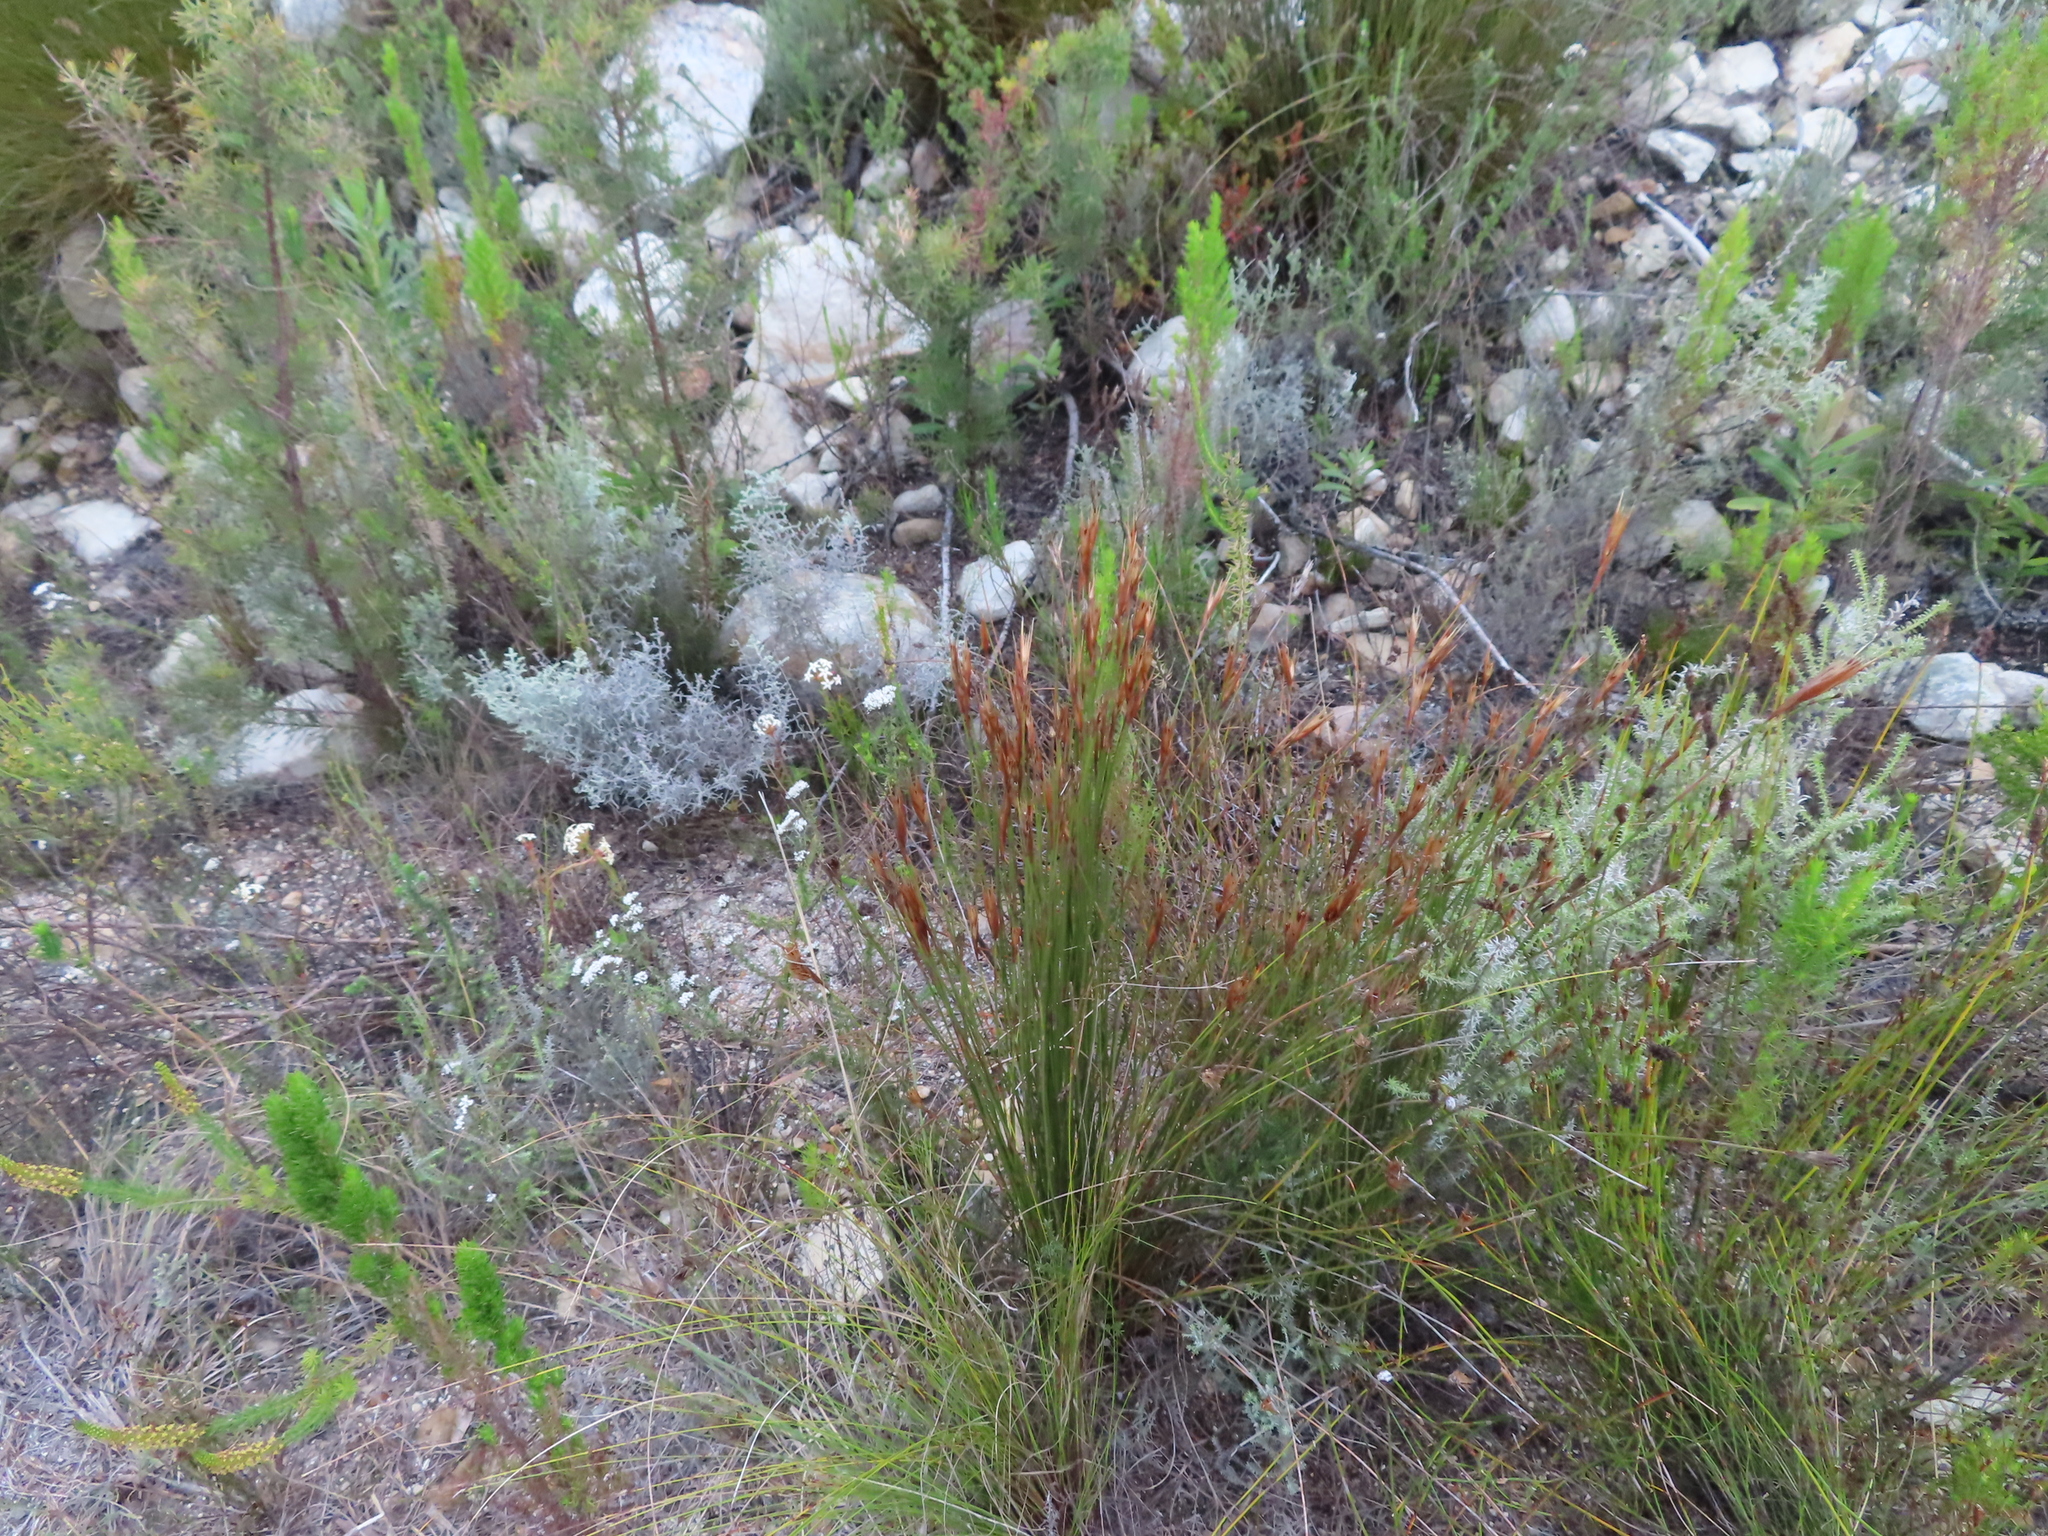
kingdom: Plantae
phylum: Tracheophyta
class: Liliopsida
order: Poales
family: Restionaceae
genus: Hypodiscus
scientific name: Hypodiscus argenteus
